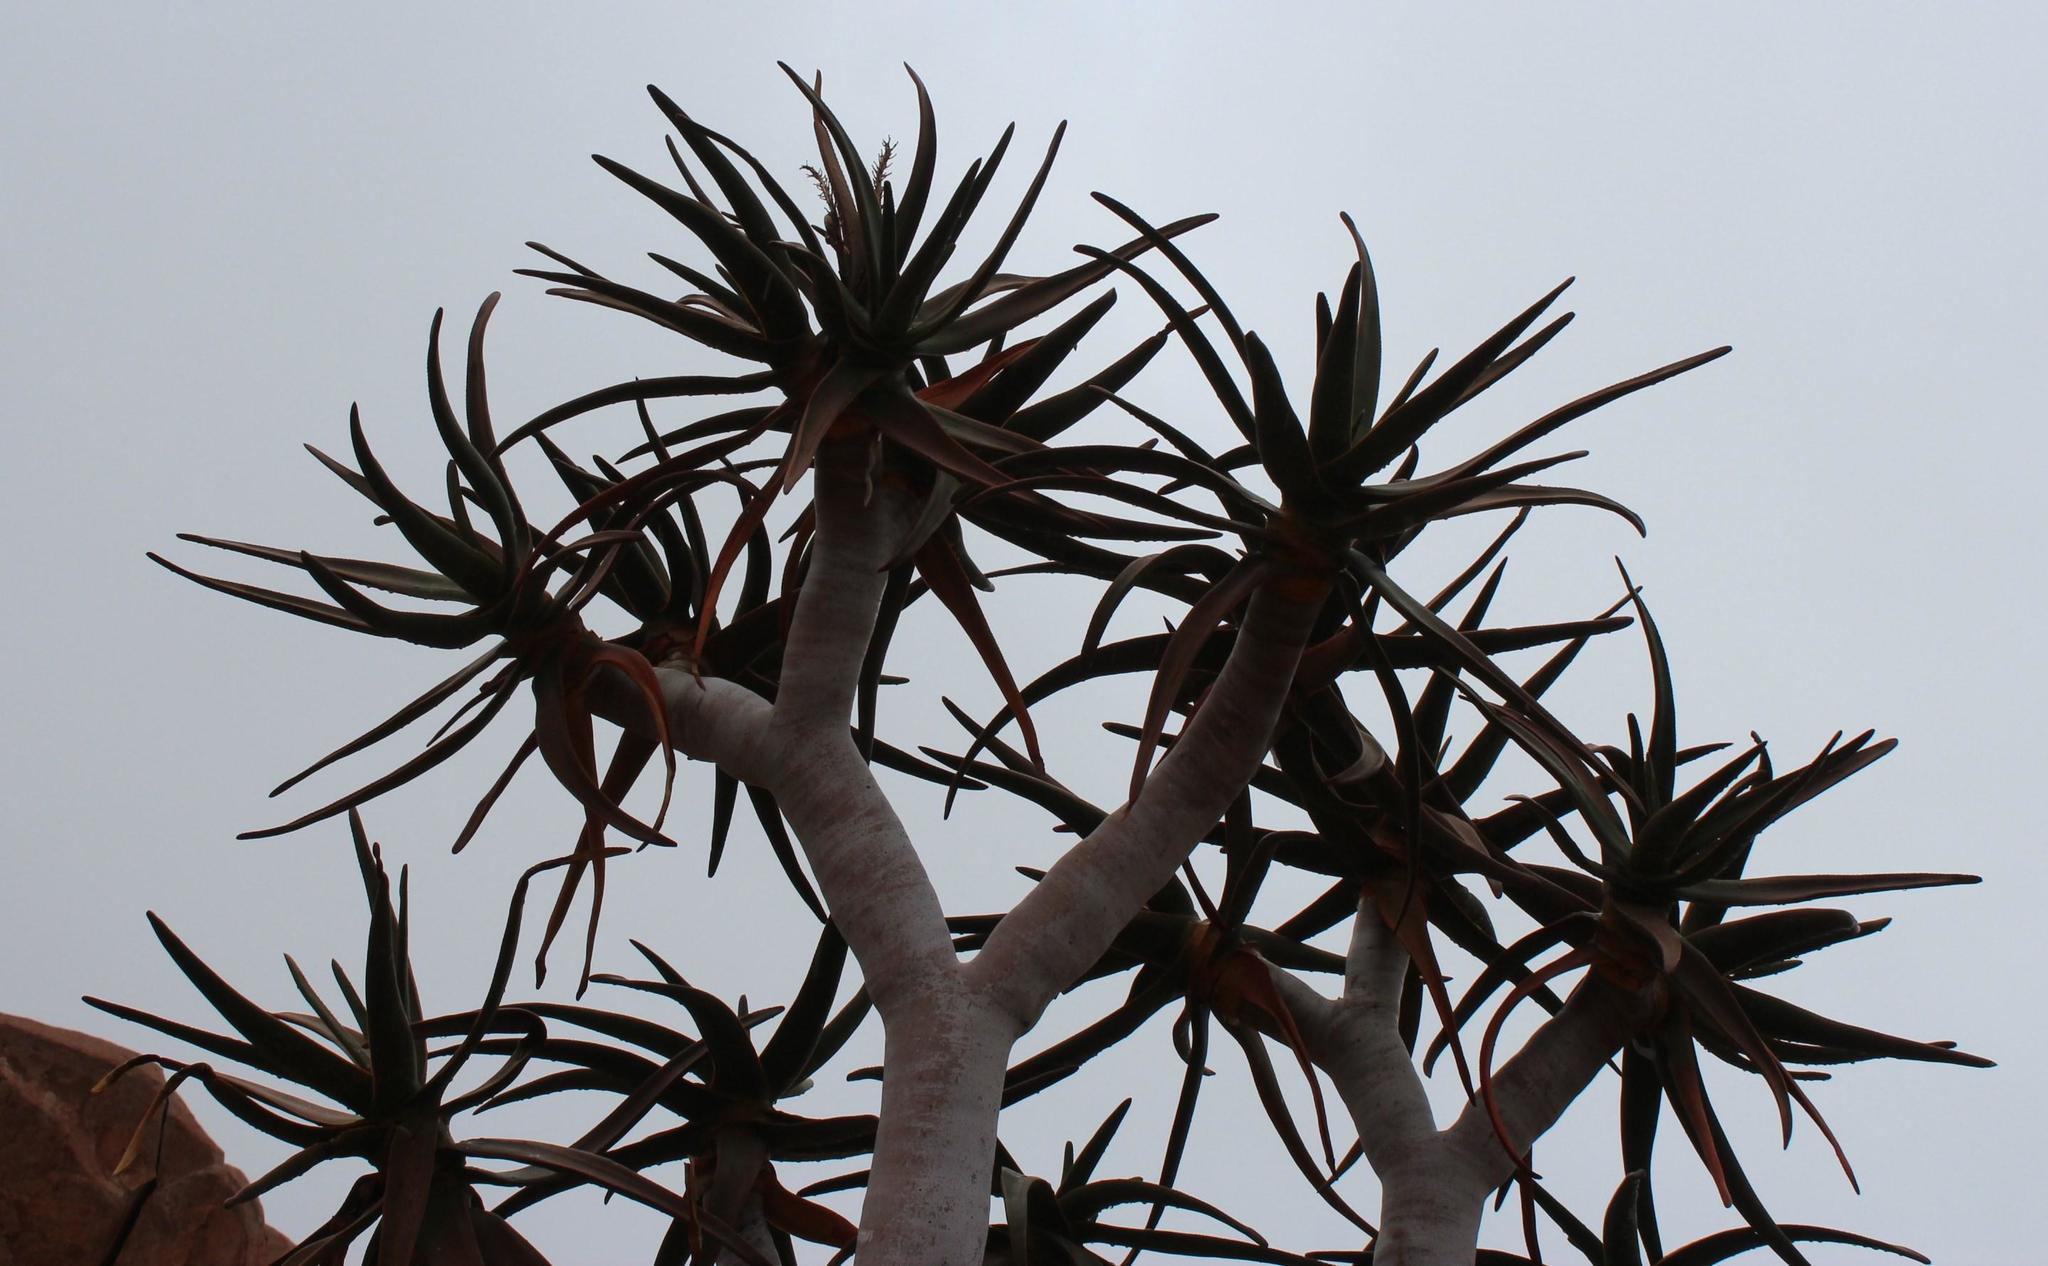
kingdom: Plantae
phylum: Tracheophyta
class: Liliopsida
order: Asparagales
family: Asphodelaceae
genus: Aloidendron
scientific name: Aloidendron dichotomum
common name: Quiver tree
